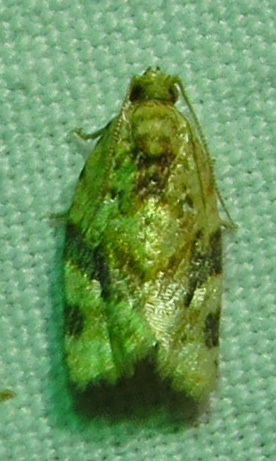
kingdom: Animalia
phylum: Arthropoda
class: Insecta
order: Lepidoptera
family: Tortricidae
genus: Argyrotaenia
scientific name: Argyrotaenia velutinana
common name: Red-banded leafroller moth
